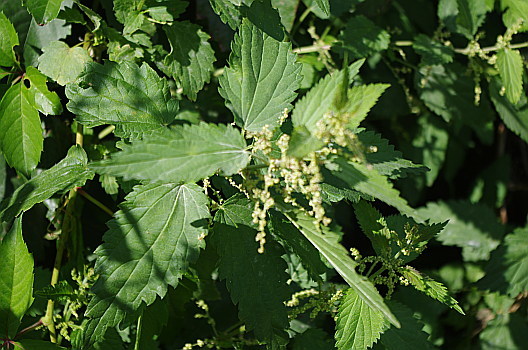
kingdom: Plantae
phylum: Tracheophyta
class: Magnoliopsida
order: Rosales
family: Urticaceae
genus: Urtica
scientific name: Urtica dioica
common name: Common nettle
